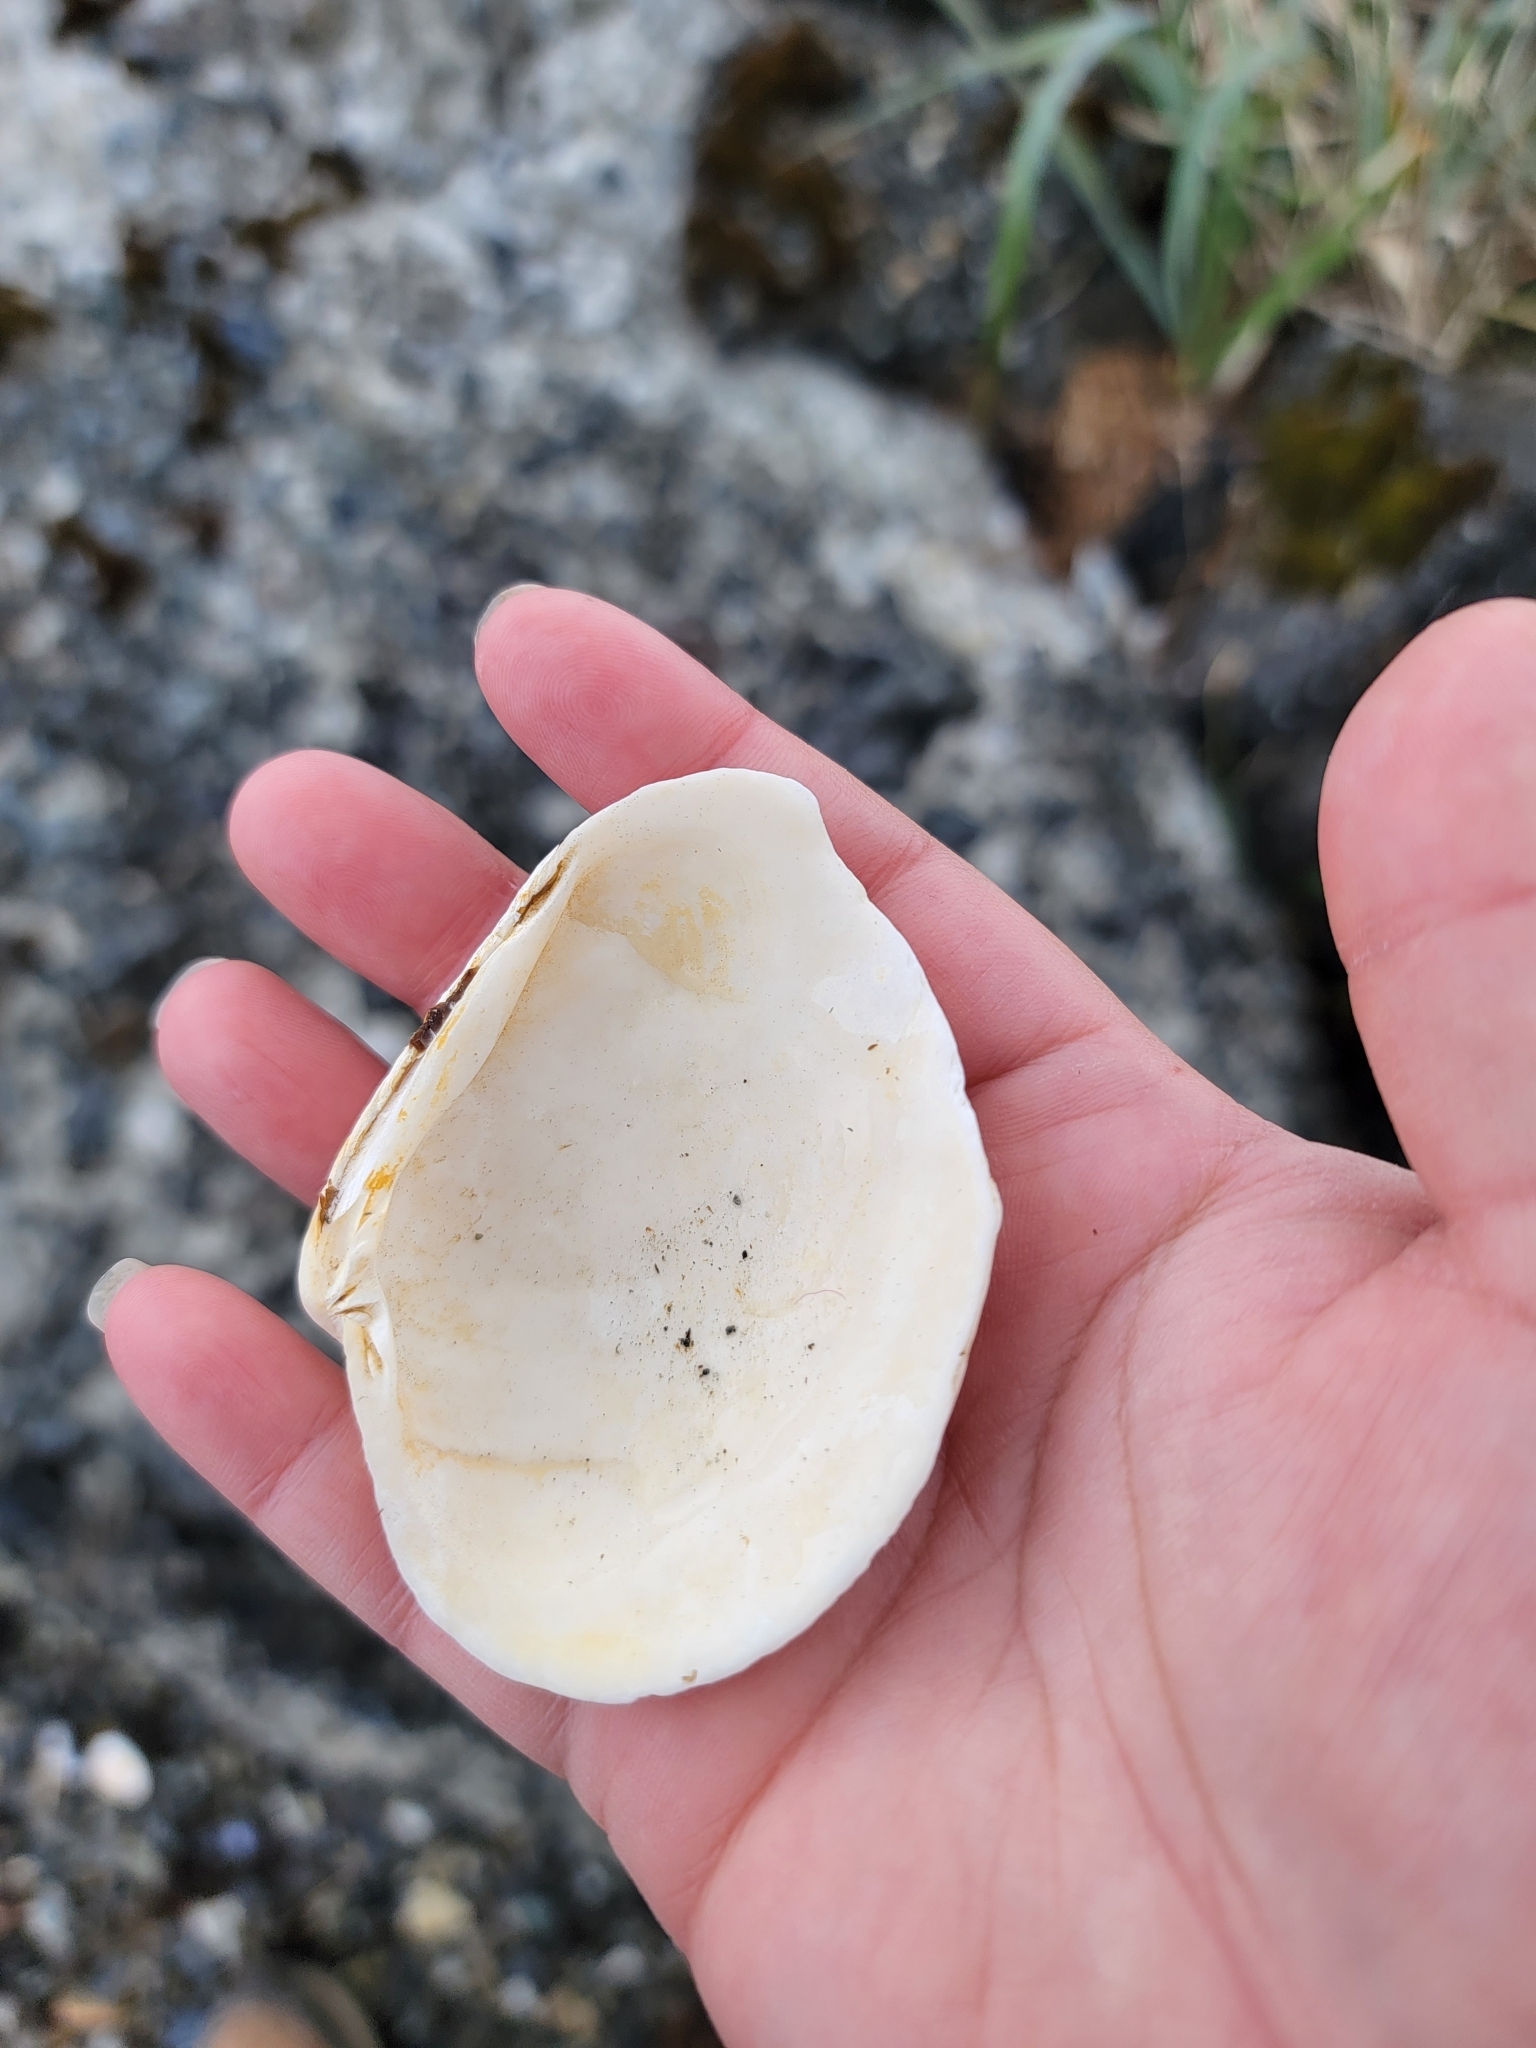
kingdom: Animalia
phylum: Mollusca
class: Bivalvia
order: Venerida
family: Veneridae
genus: Saxidomus
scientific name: Saxidomus gigantea
